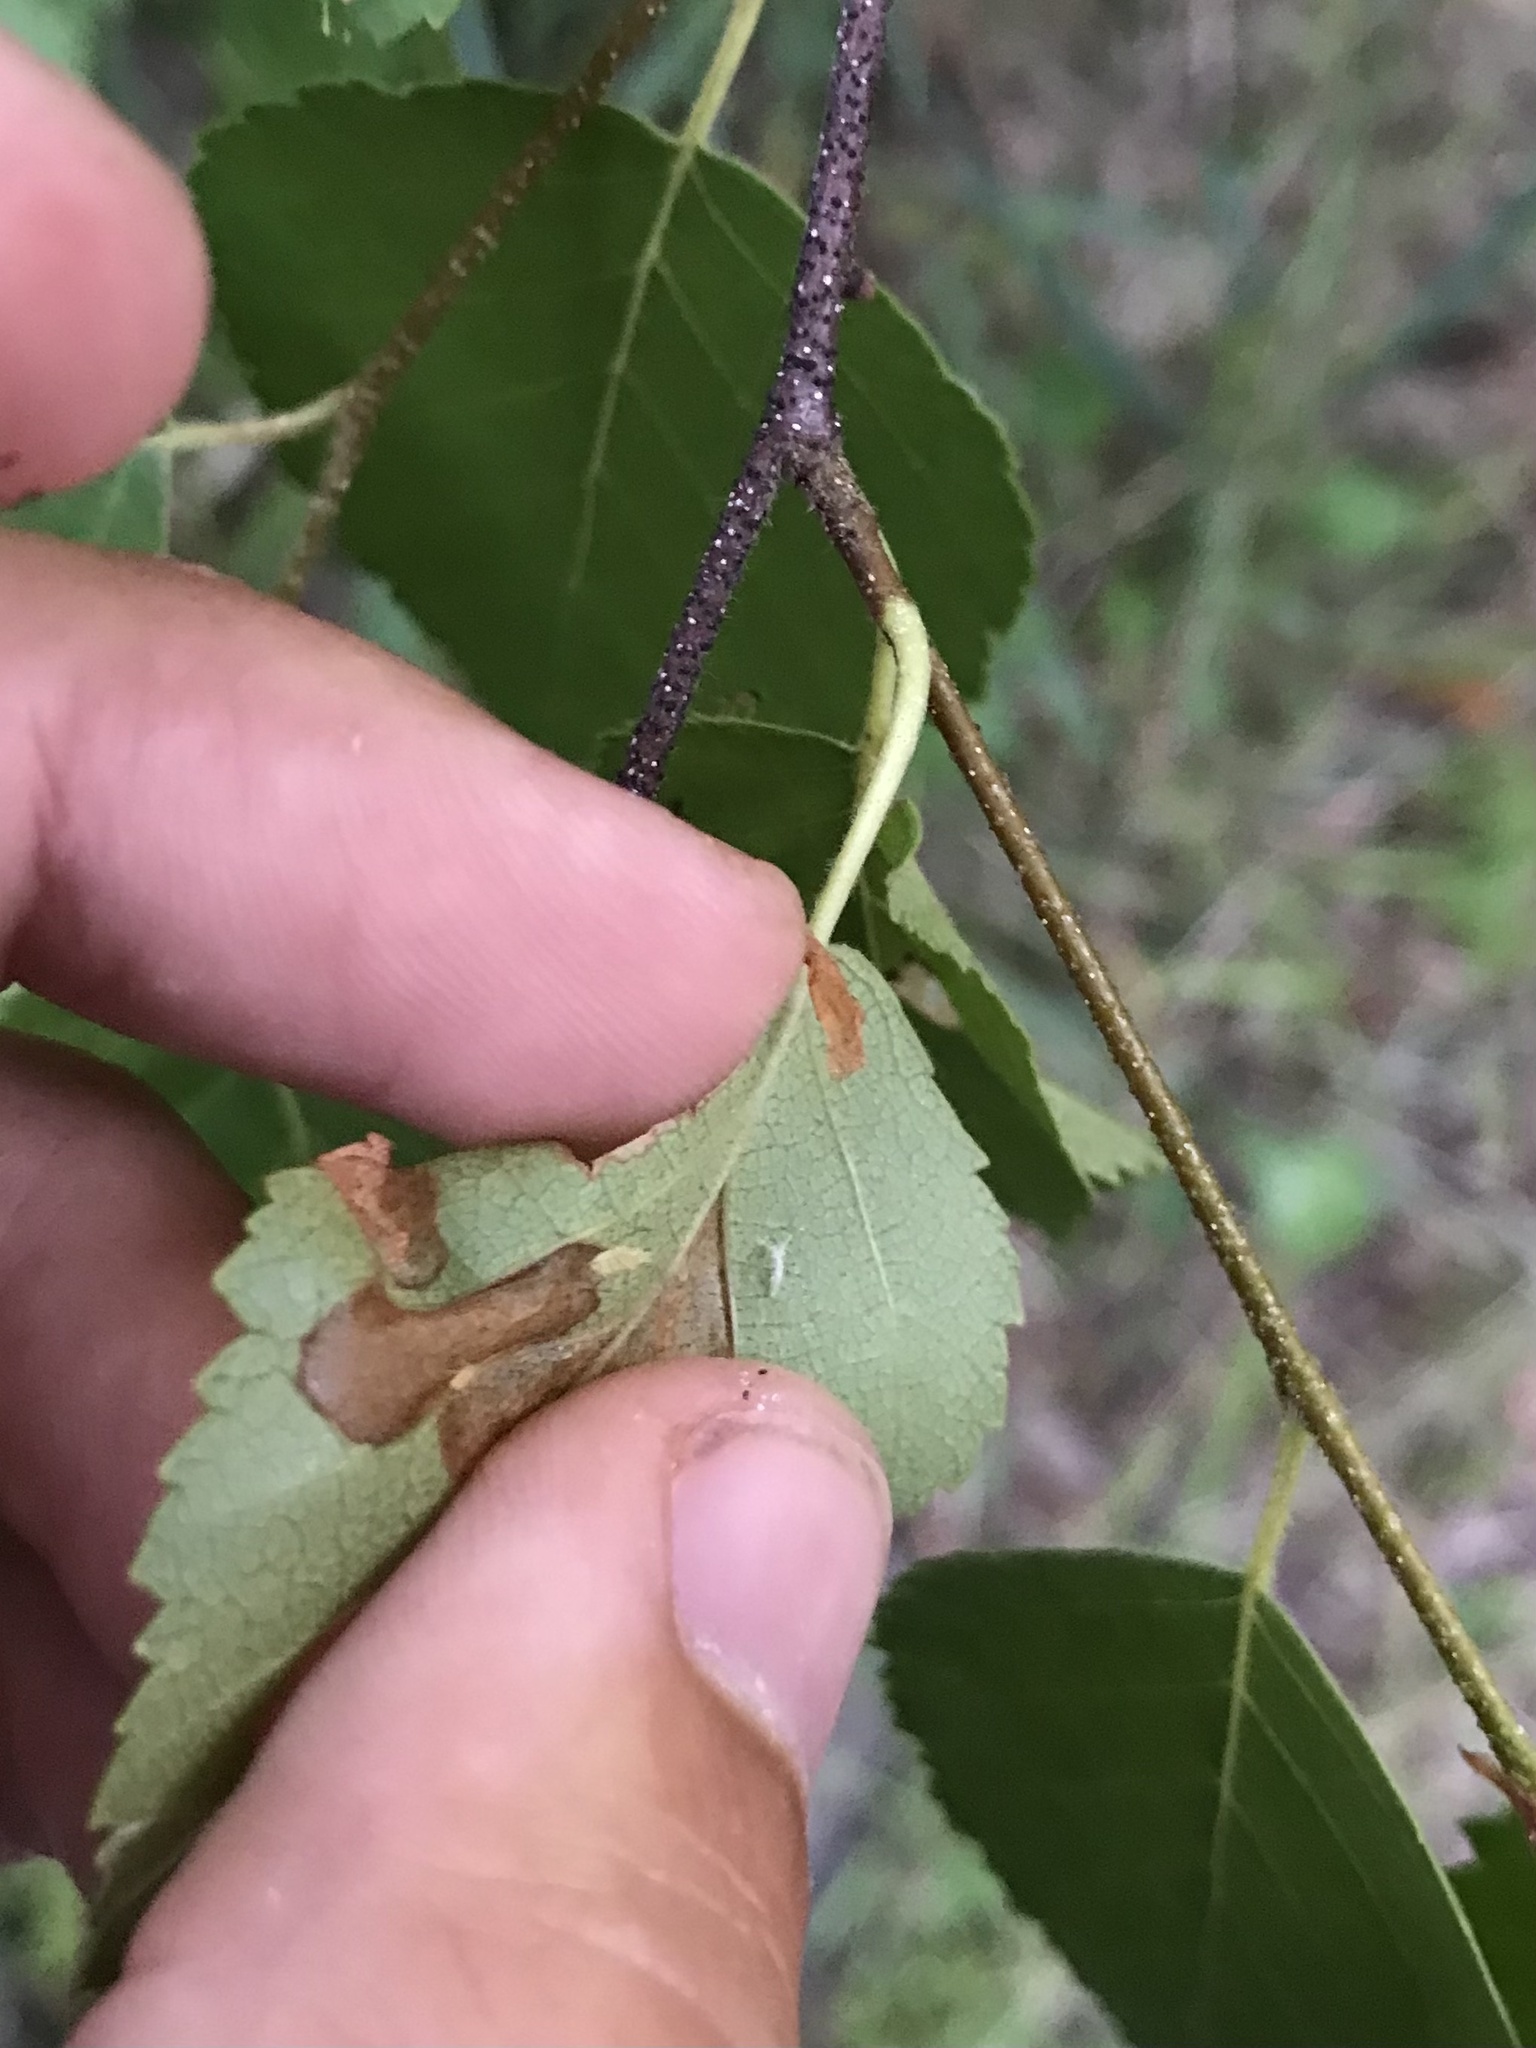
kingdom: Animalia
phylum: Arthropoda
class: Insecta
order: Lepidoptera
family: Coleophoridae
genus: Coleophora
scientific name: Coleophora comptoniella
